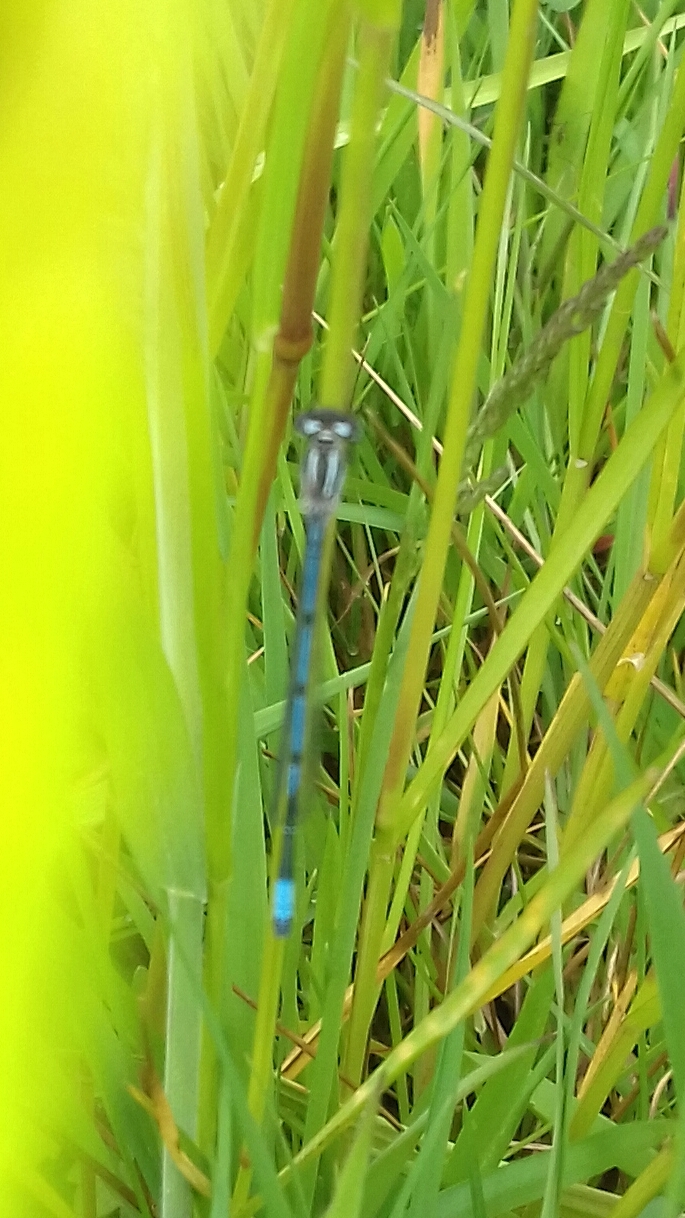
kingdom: Animalia
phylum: Arthropoda
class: Insecta
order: Odonata
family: Coenagrionidae
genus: Coenagrion
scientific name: Coenagrion puella
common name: Azure damselfly
